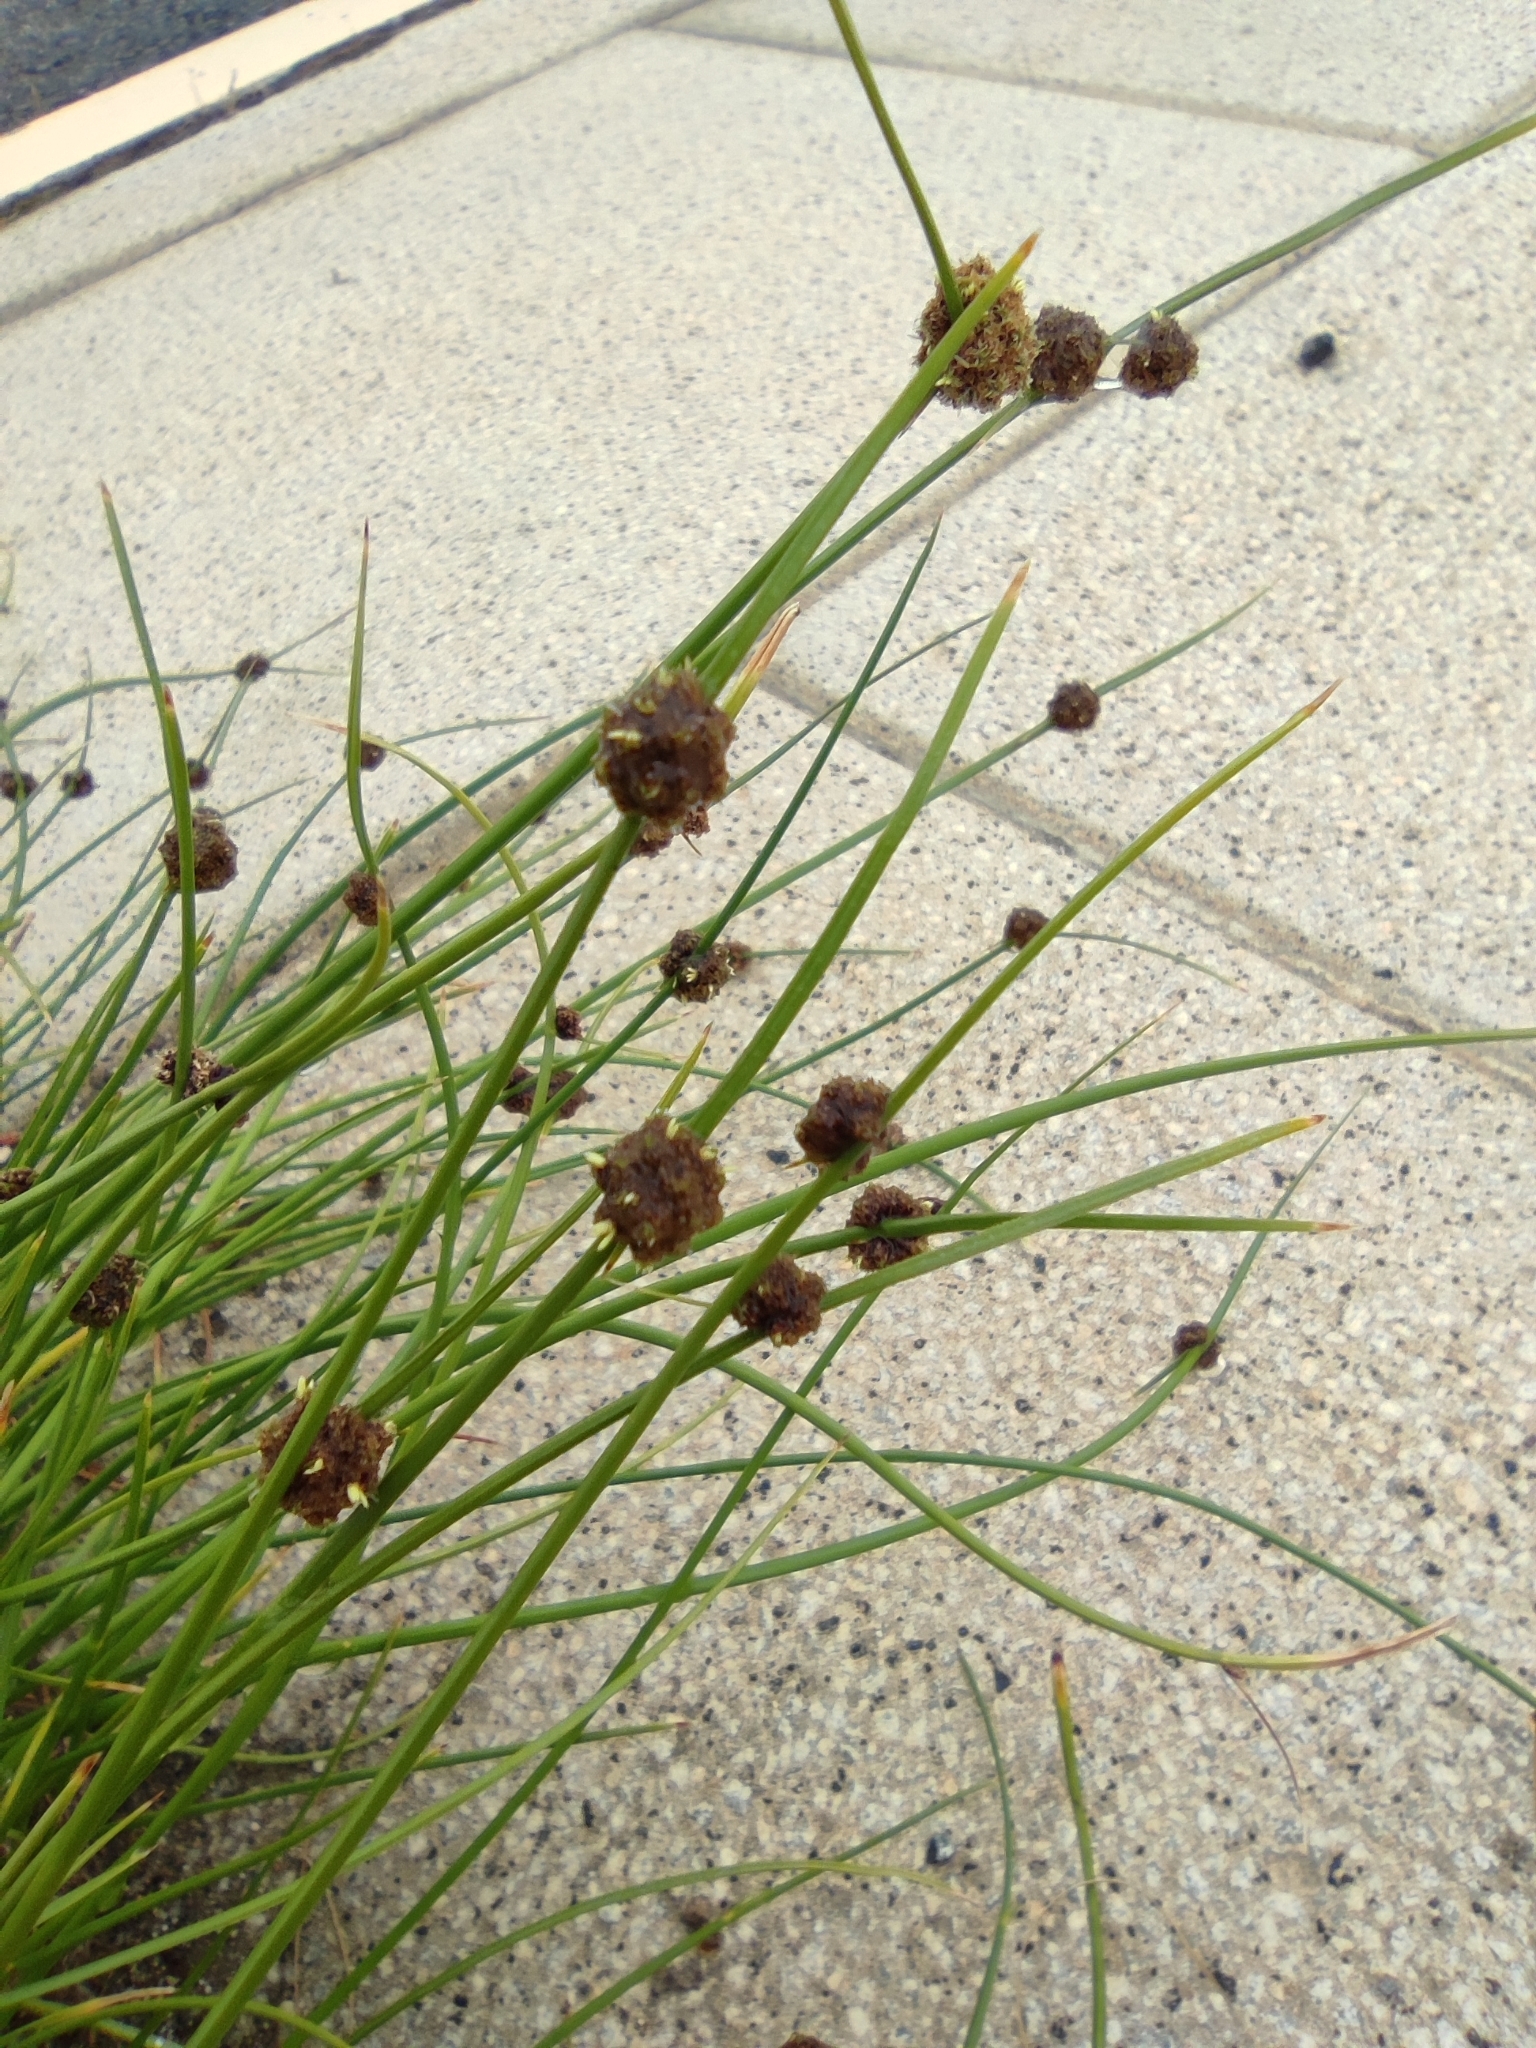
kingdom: Plantae
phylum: Tracheophyta
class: Liliopsida
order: Poales
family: Cyperaceae
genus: Scirpoides
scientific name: Scirpoides holoschoenus
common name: Round-headed club-rush
